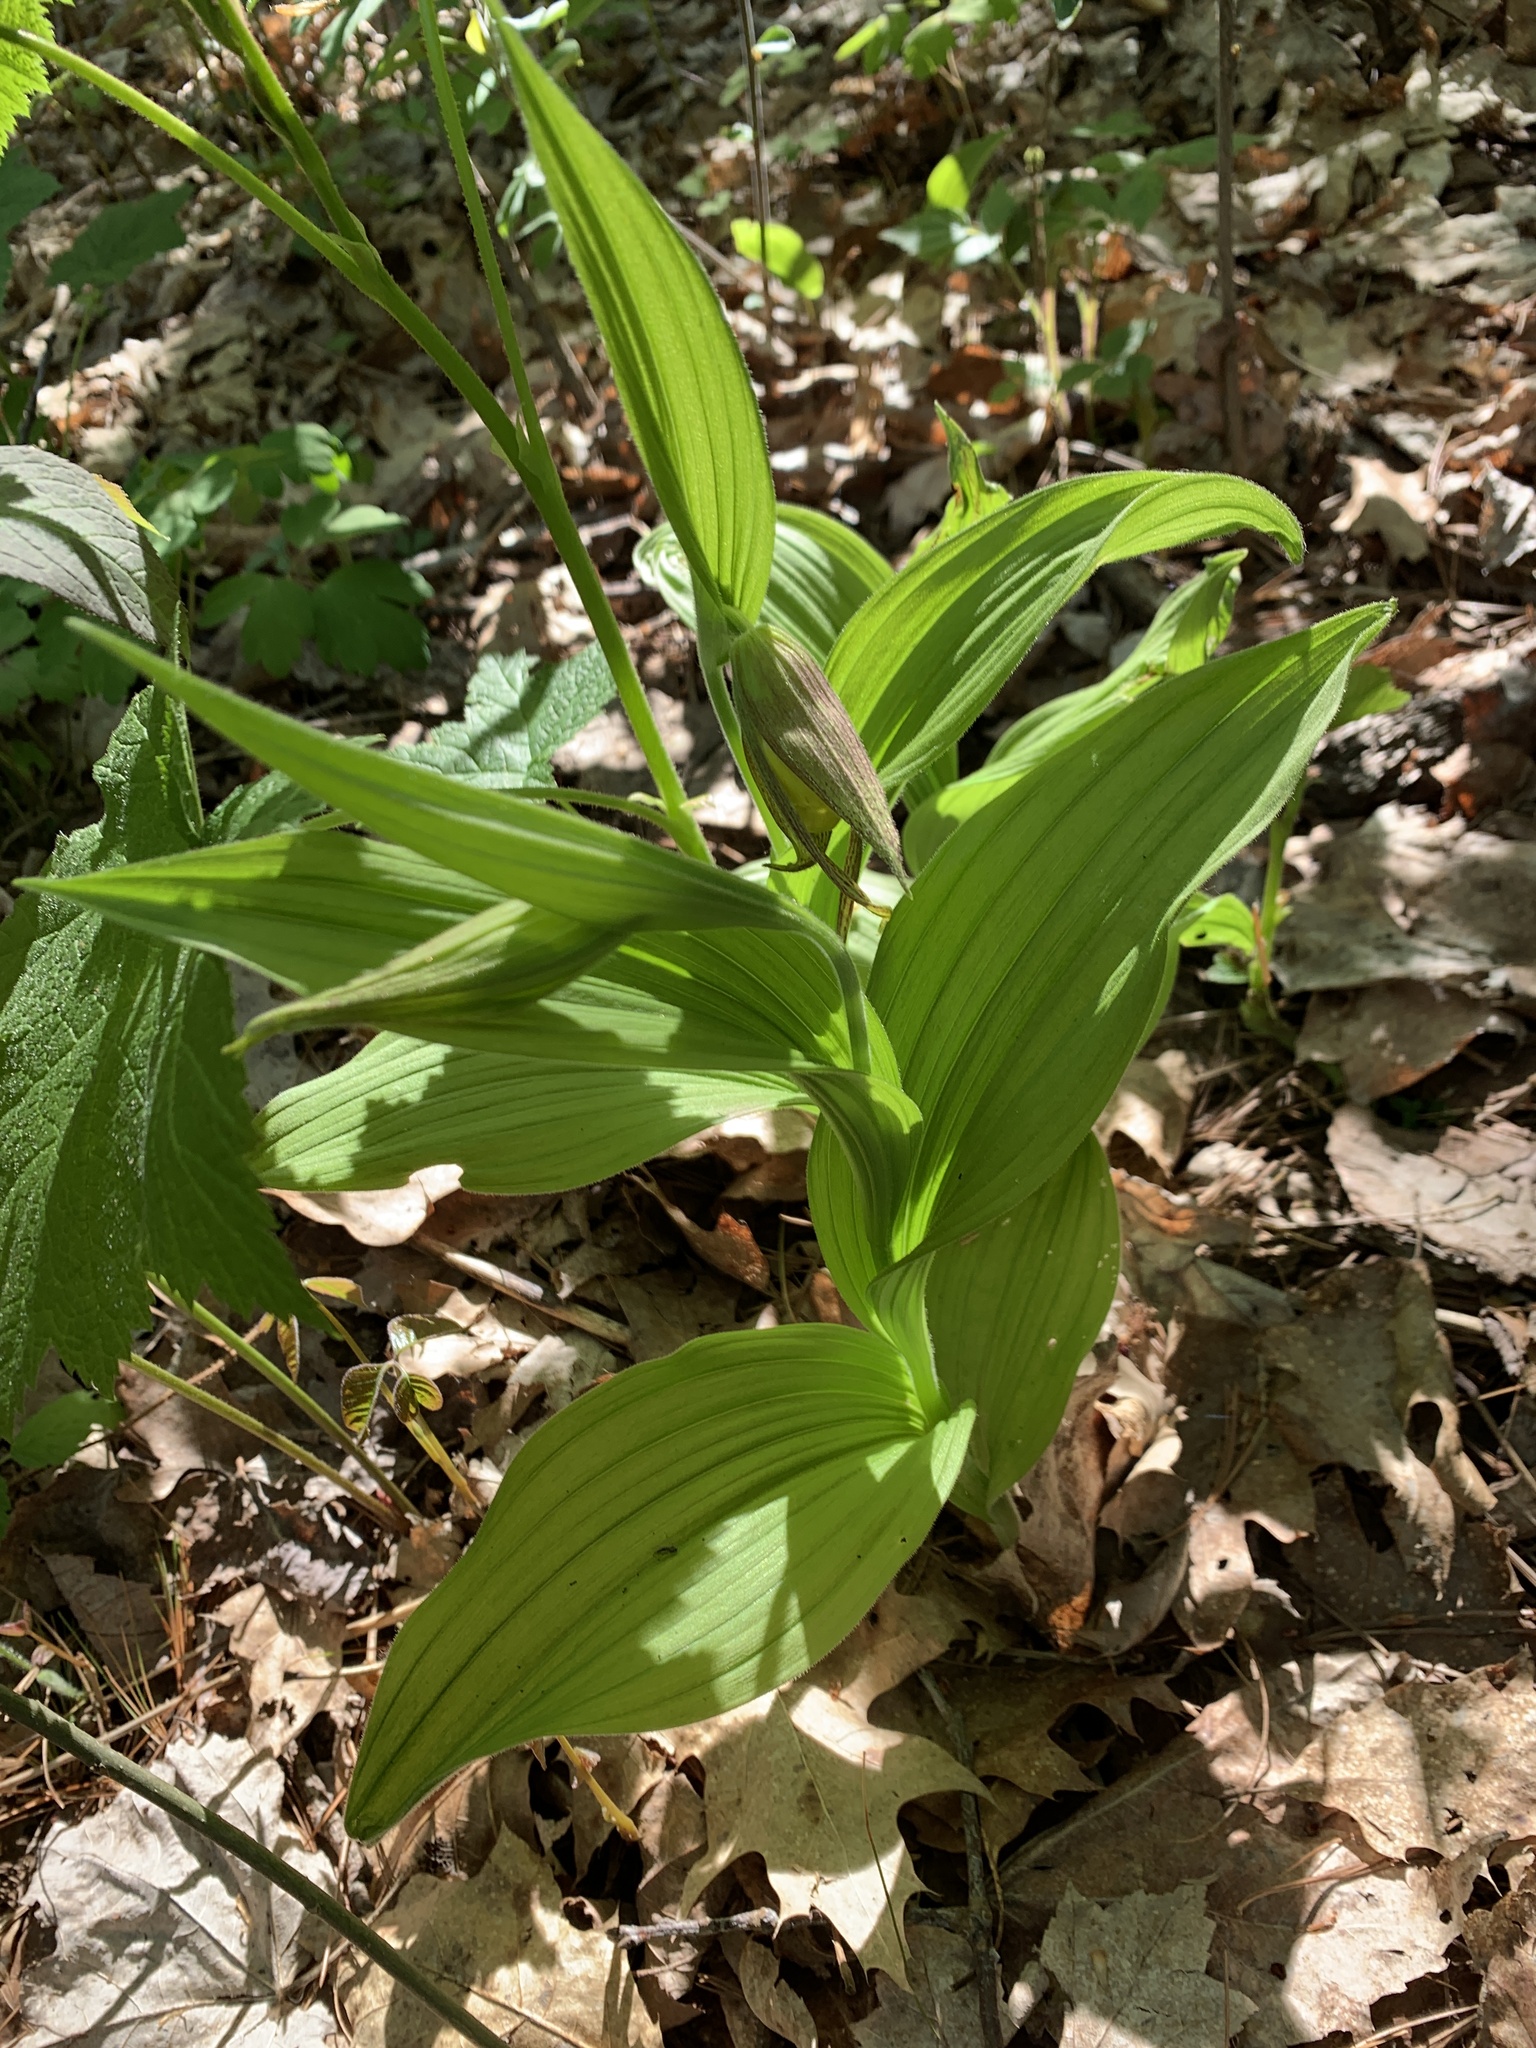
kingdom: Plantae
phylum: Tracheophyta
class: Liliopsida
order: Asparagales
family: Orchidaceae
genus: Cypripedium
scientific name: Cypripedium parviflorum
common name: American yellow lady's-slipper
